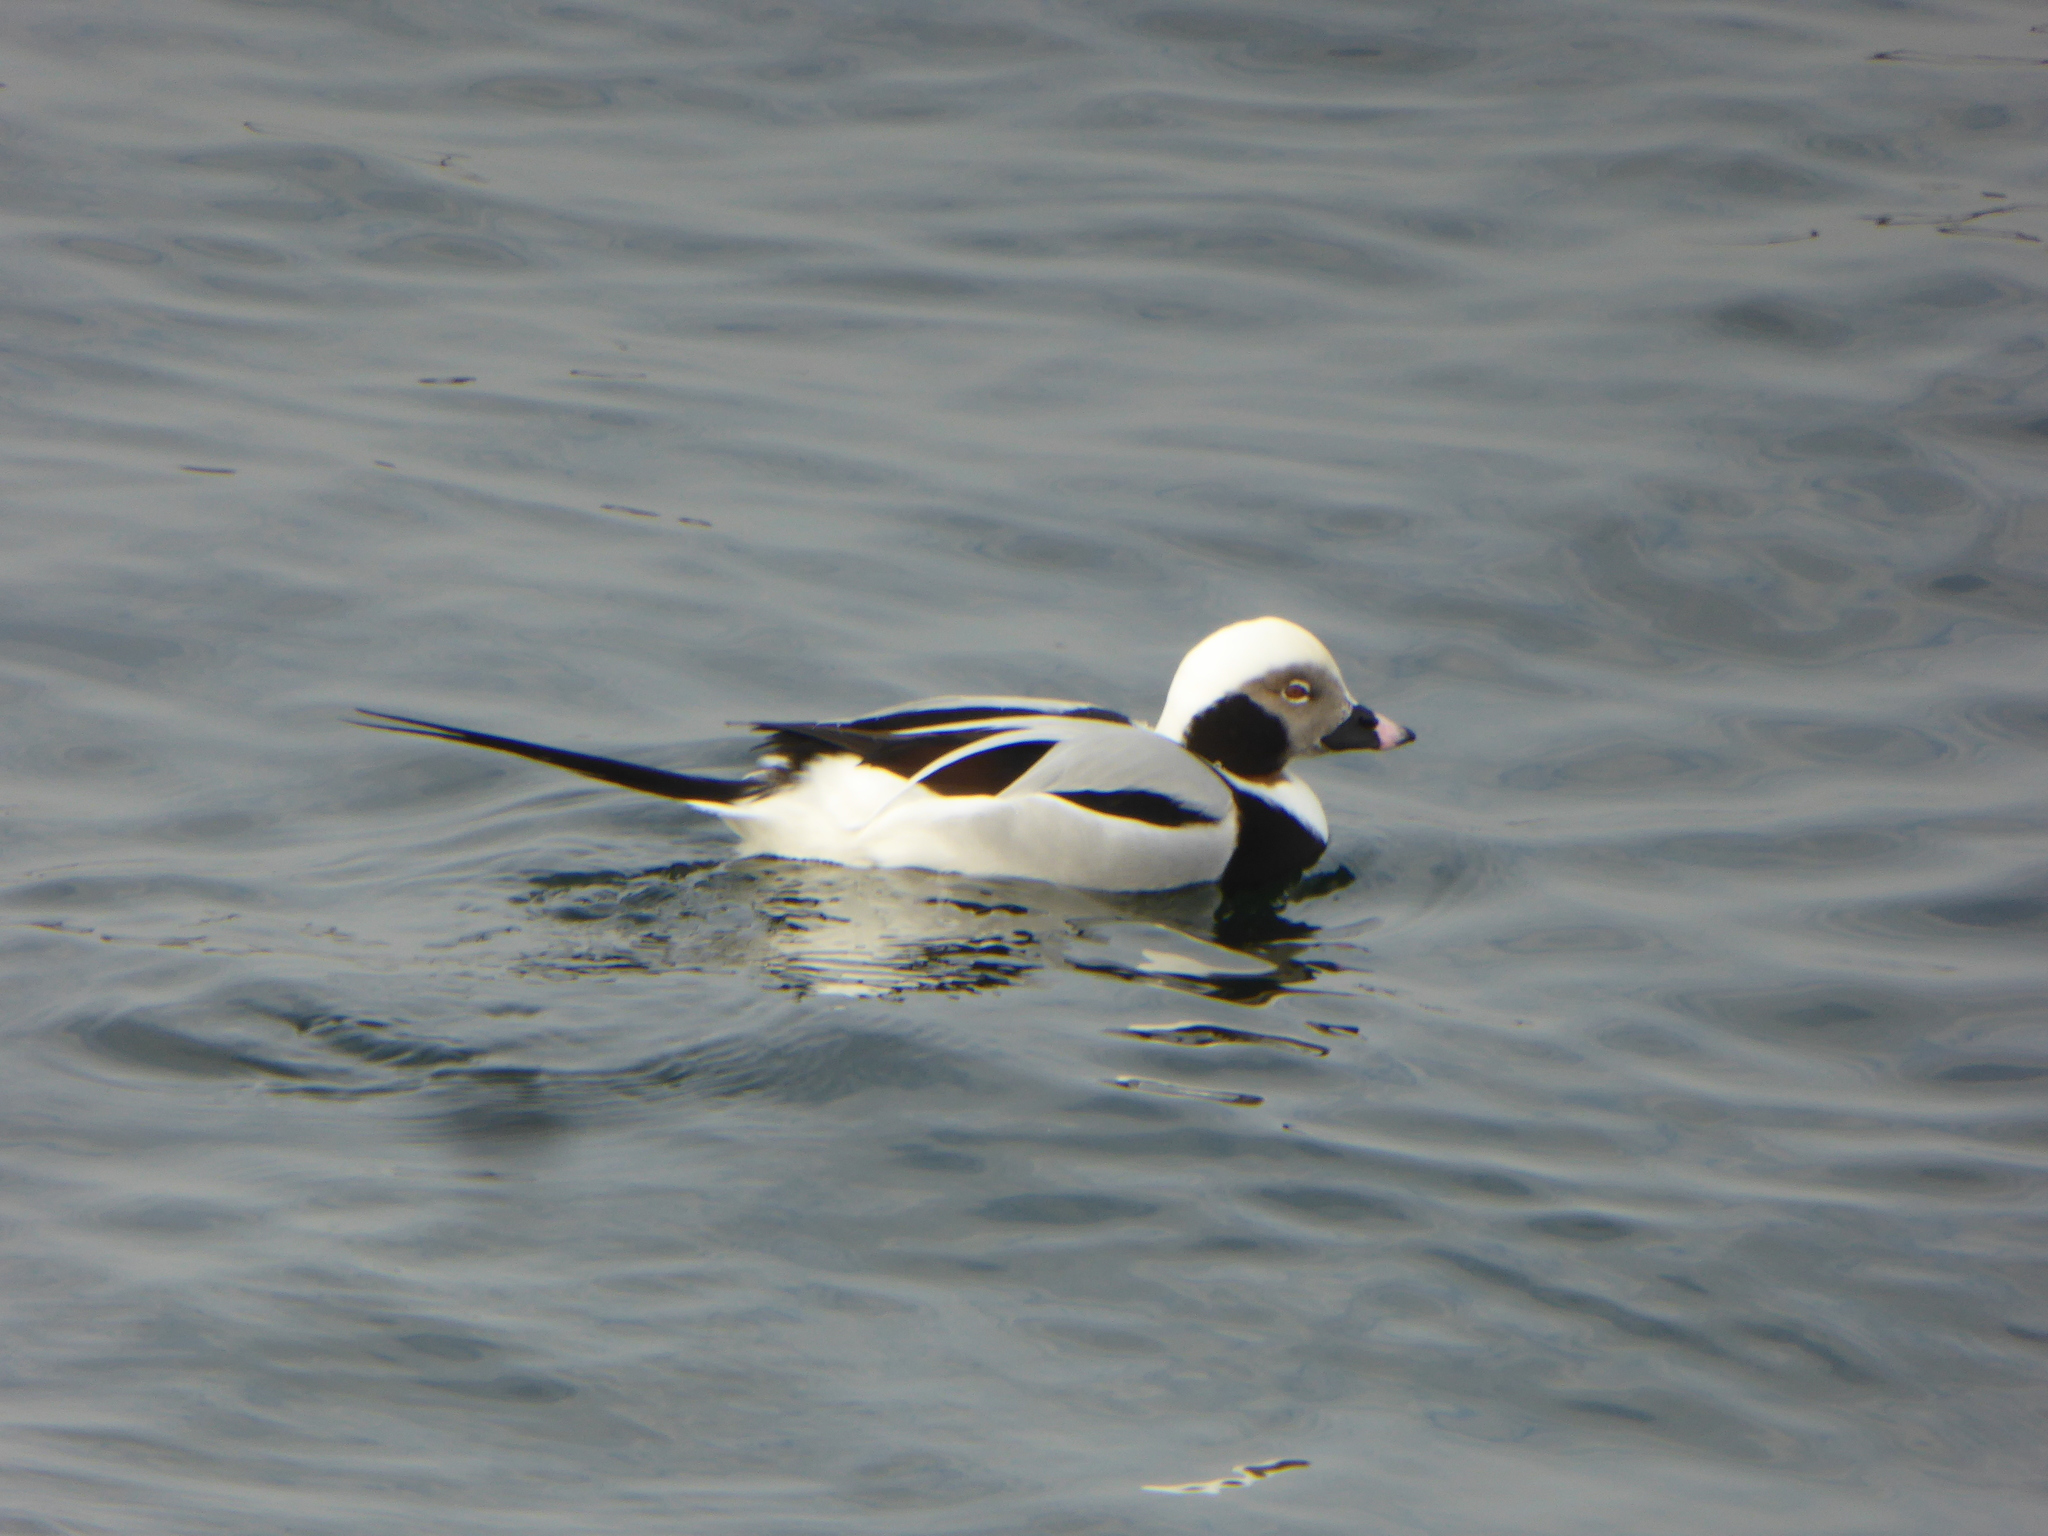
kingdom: Animalia
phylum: Chordata
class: Aves
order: Anseriformes
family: Anatidae
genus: Clangula
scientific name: Clangula hyemalis
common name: Long-tailed duck
